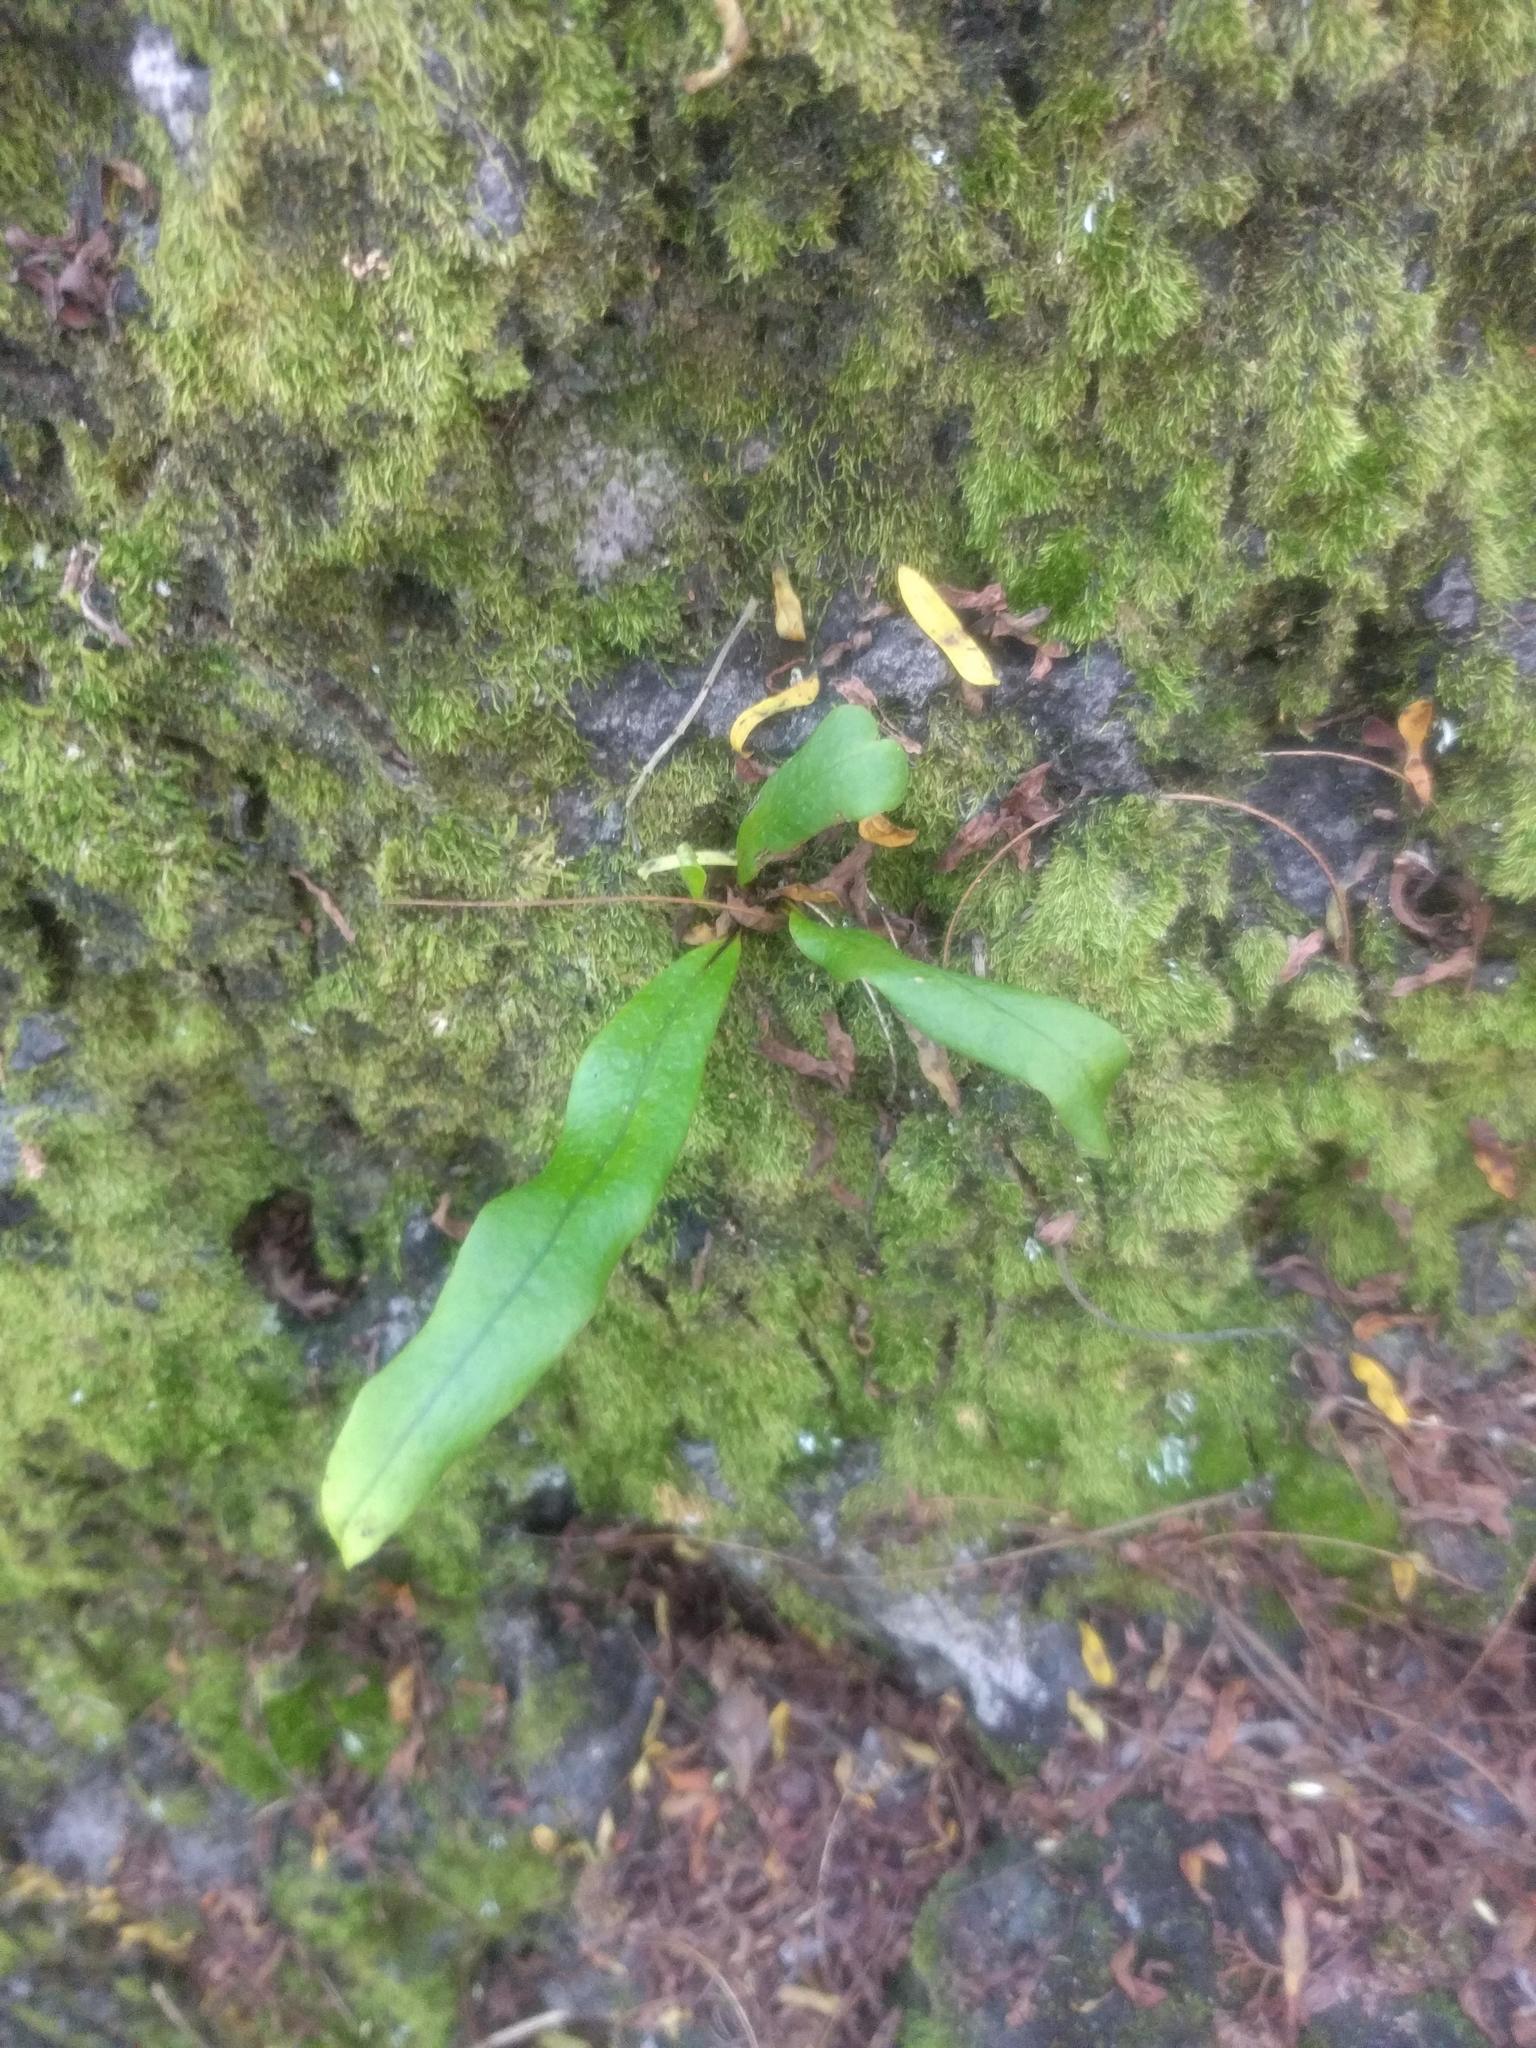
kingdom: Plantae
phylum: Tracheophyta
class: Polypodiopsida
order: Polypodiales
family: Polypodiaceae
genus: Lepisorus
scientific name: Lepisorus thunbergianus
